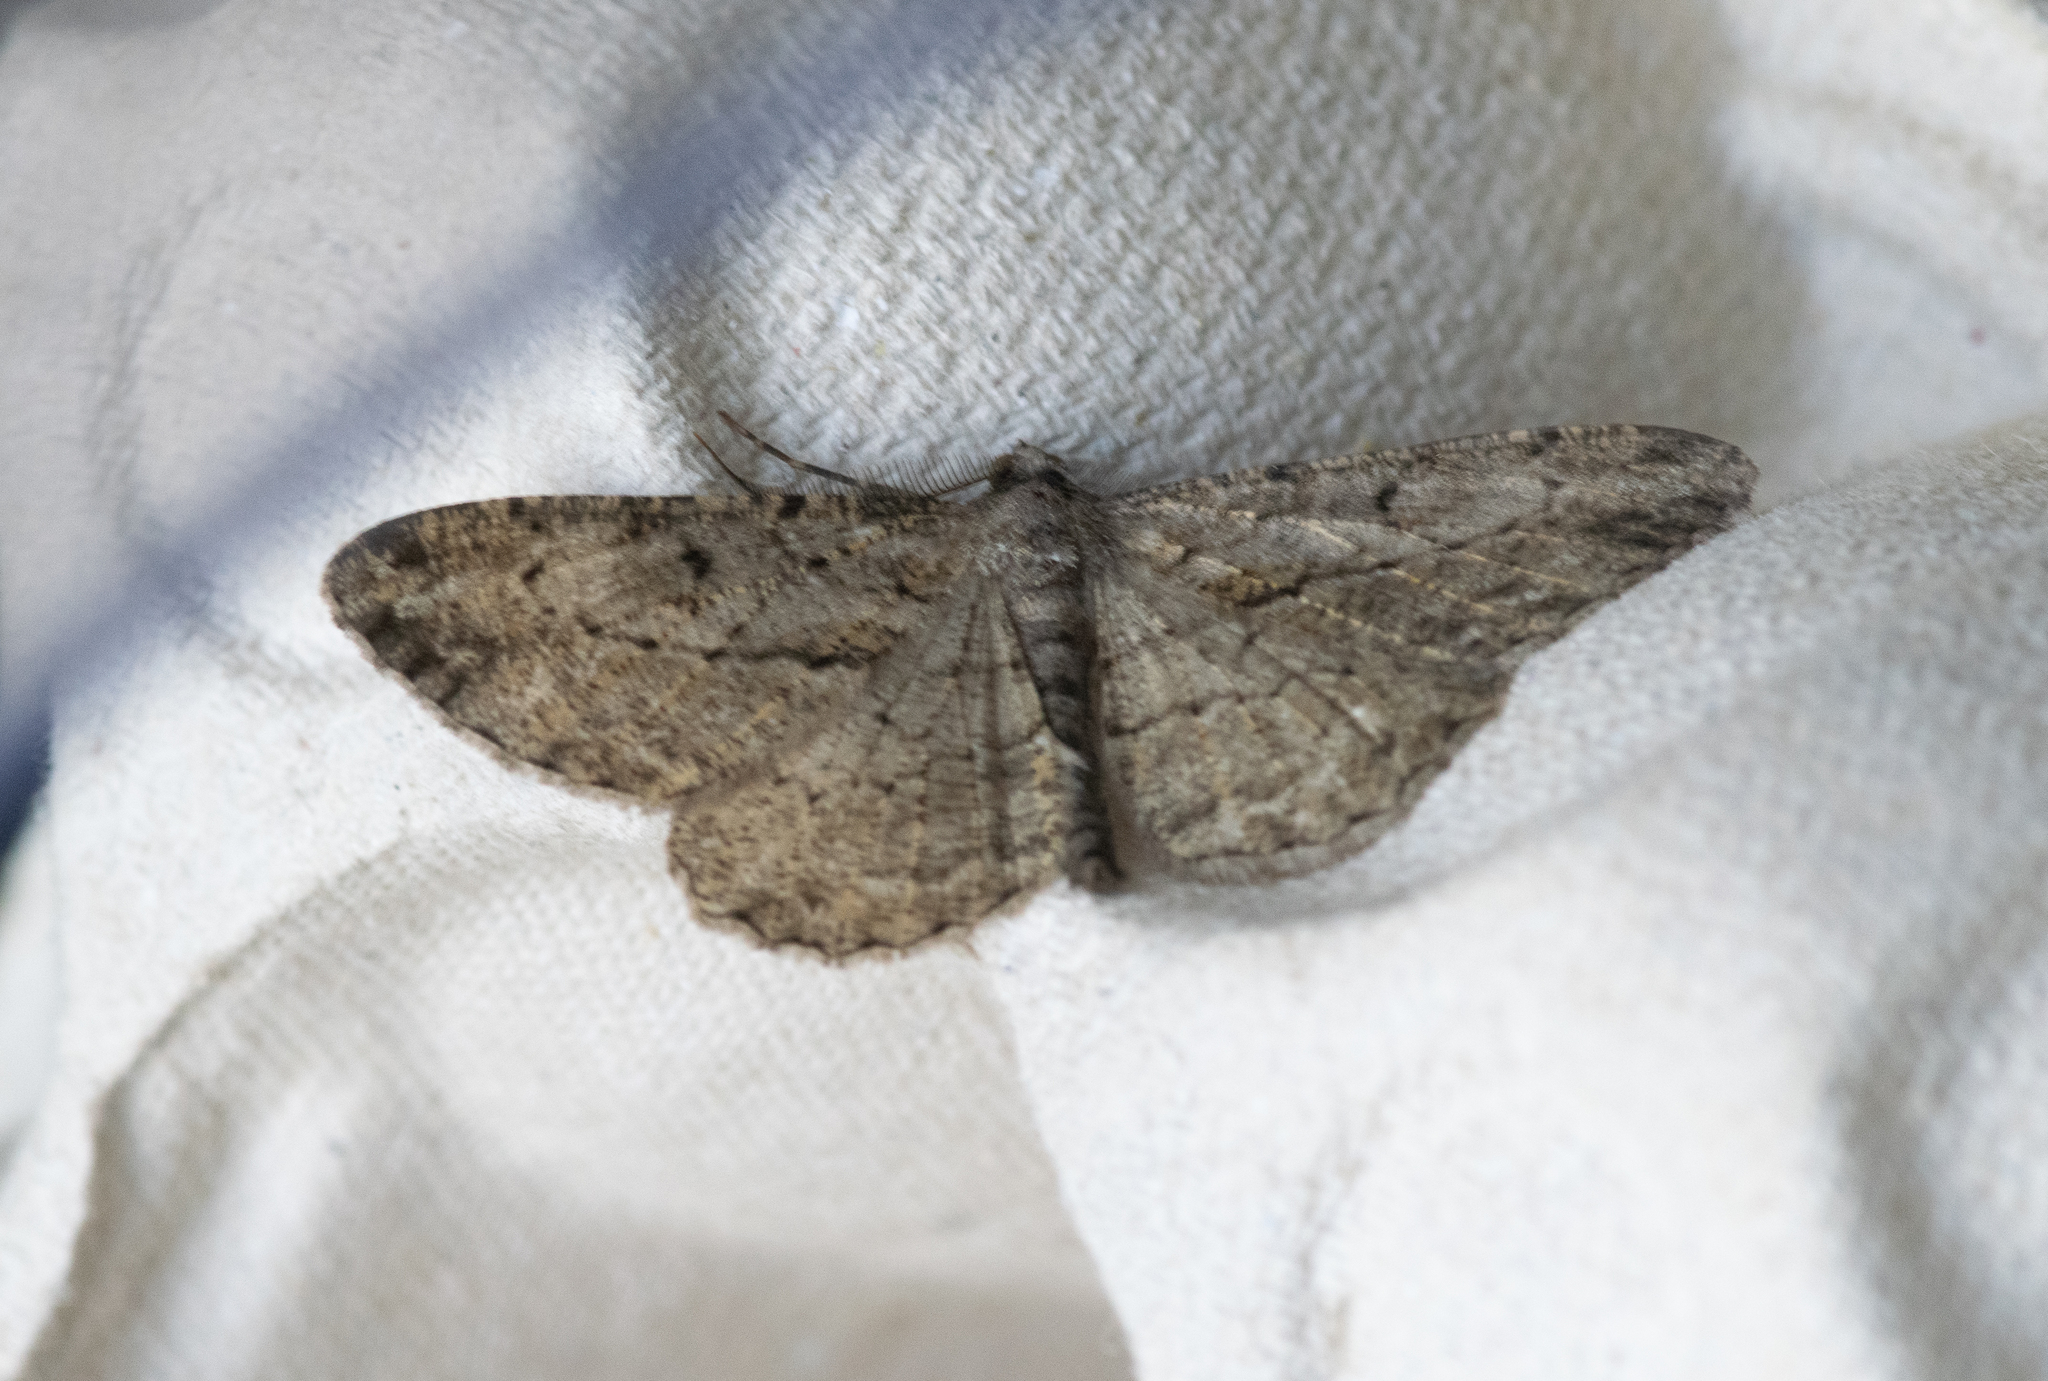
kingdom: Animalia
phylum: Arthropoda
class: Insecta
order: Lepidoptera
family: Geometridae
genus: Peribatodes
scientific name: Peribatodes rhomboidaria
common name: Willow beauty
